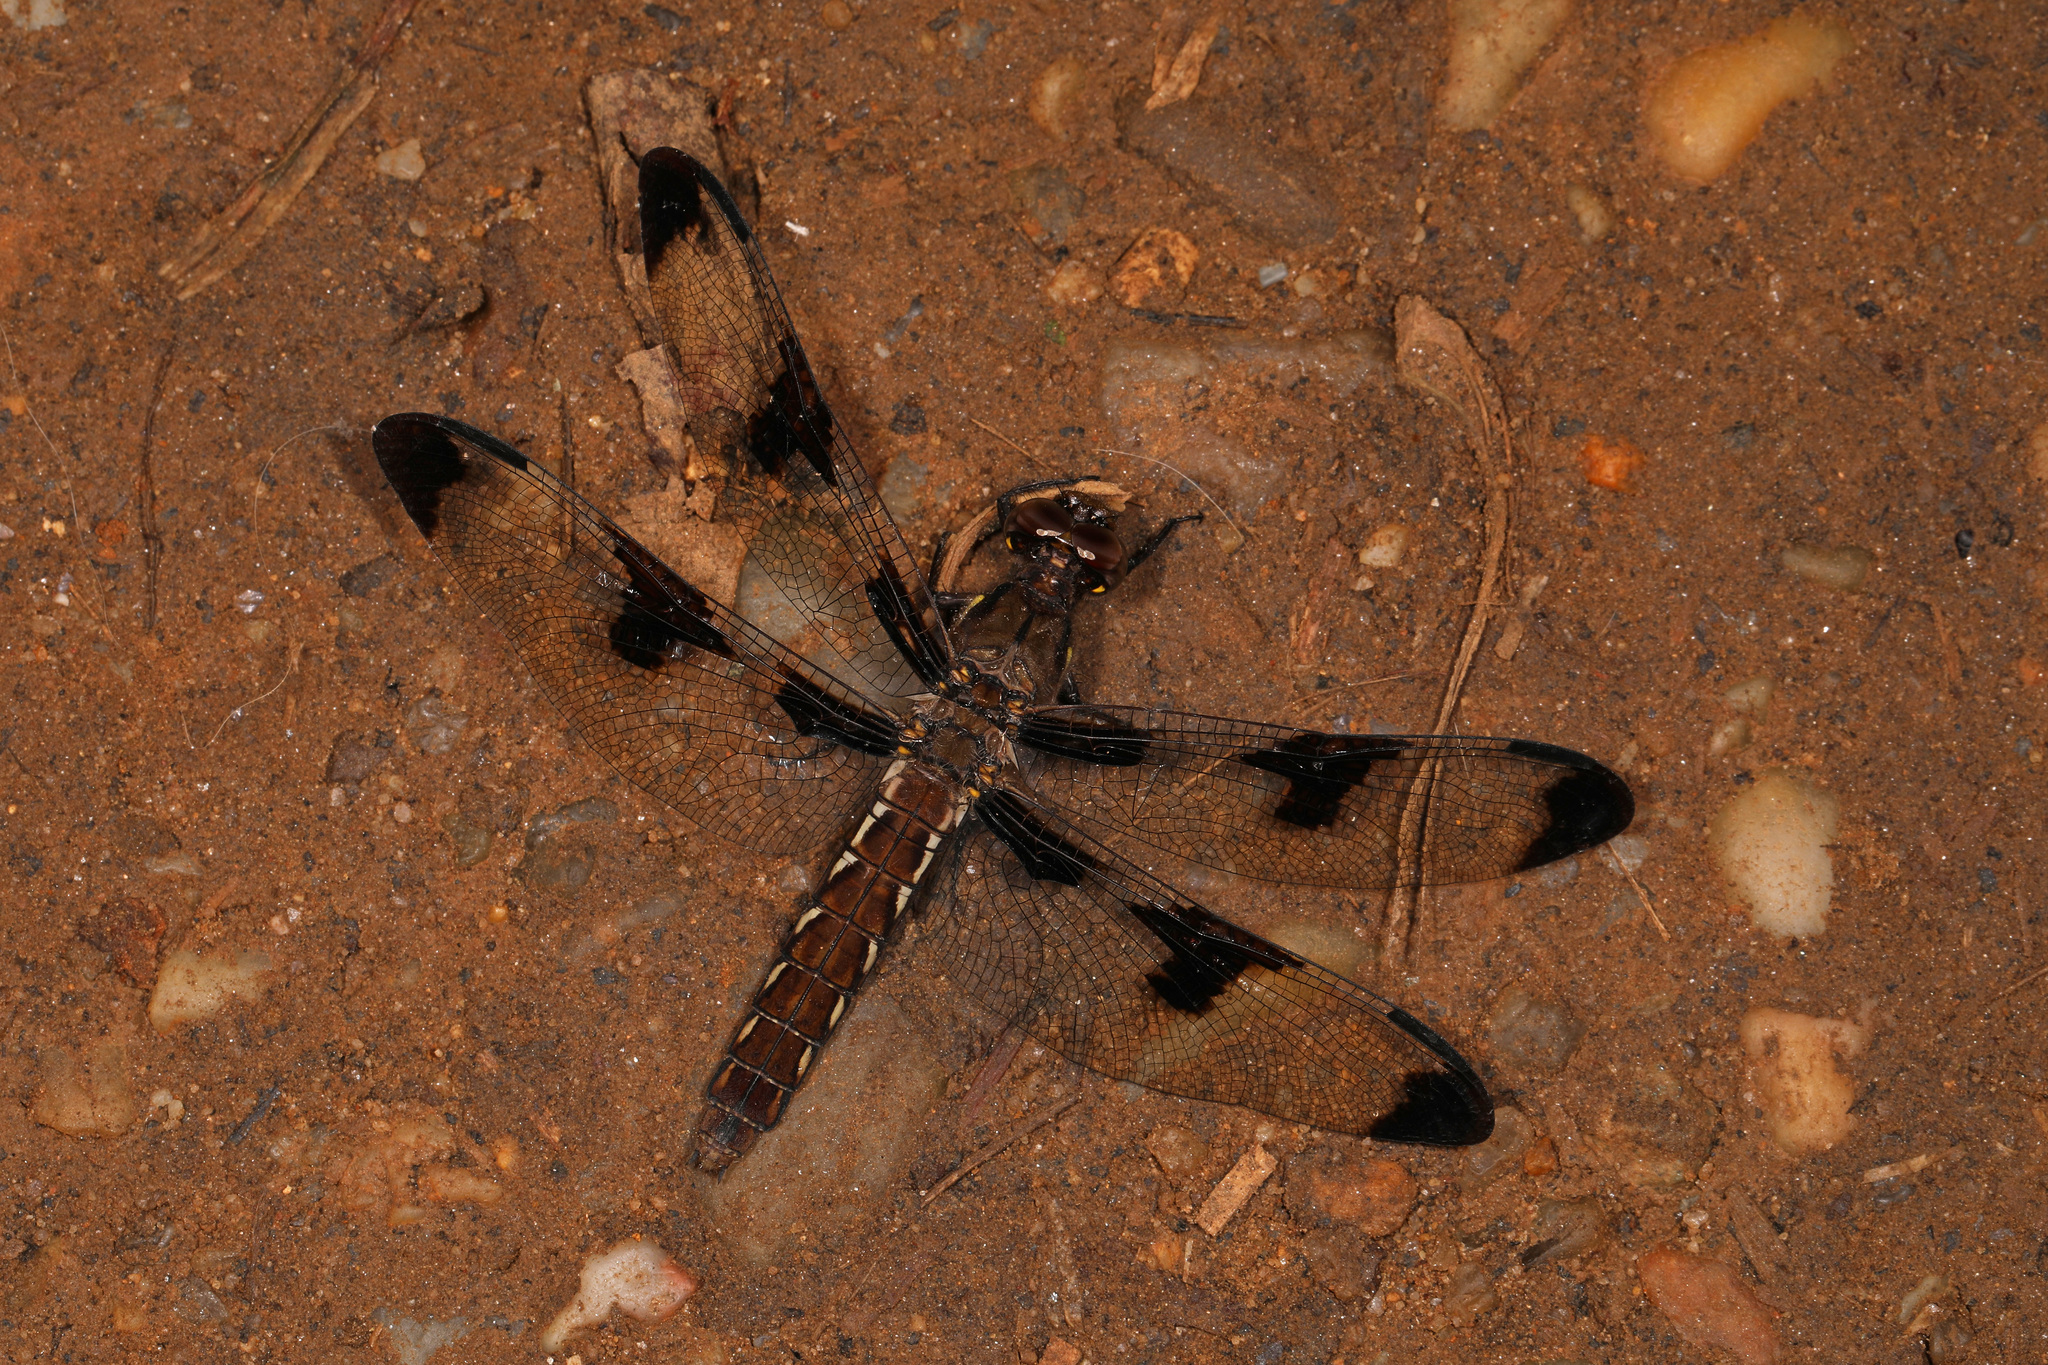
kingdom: Animalia
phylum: Arthropoda
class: Insecta
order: Odonata
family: Libellulidae
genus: Plathemis
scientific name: Plathemis lydia
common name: Common whitetail
